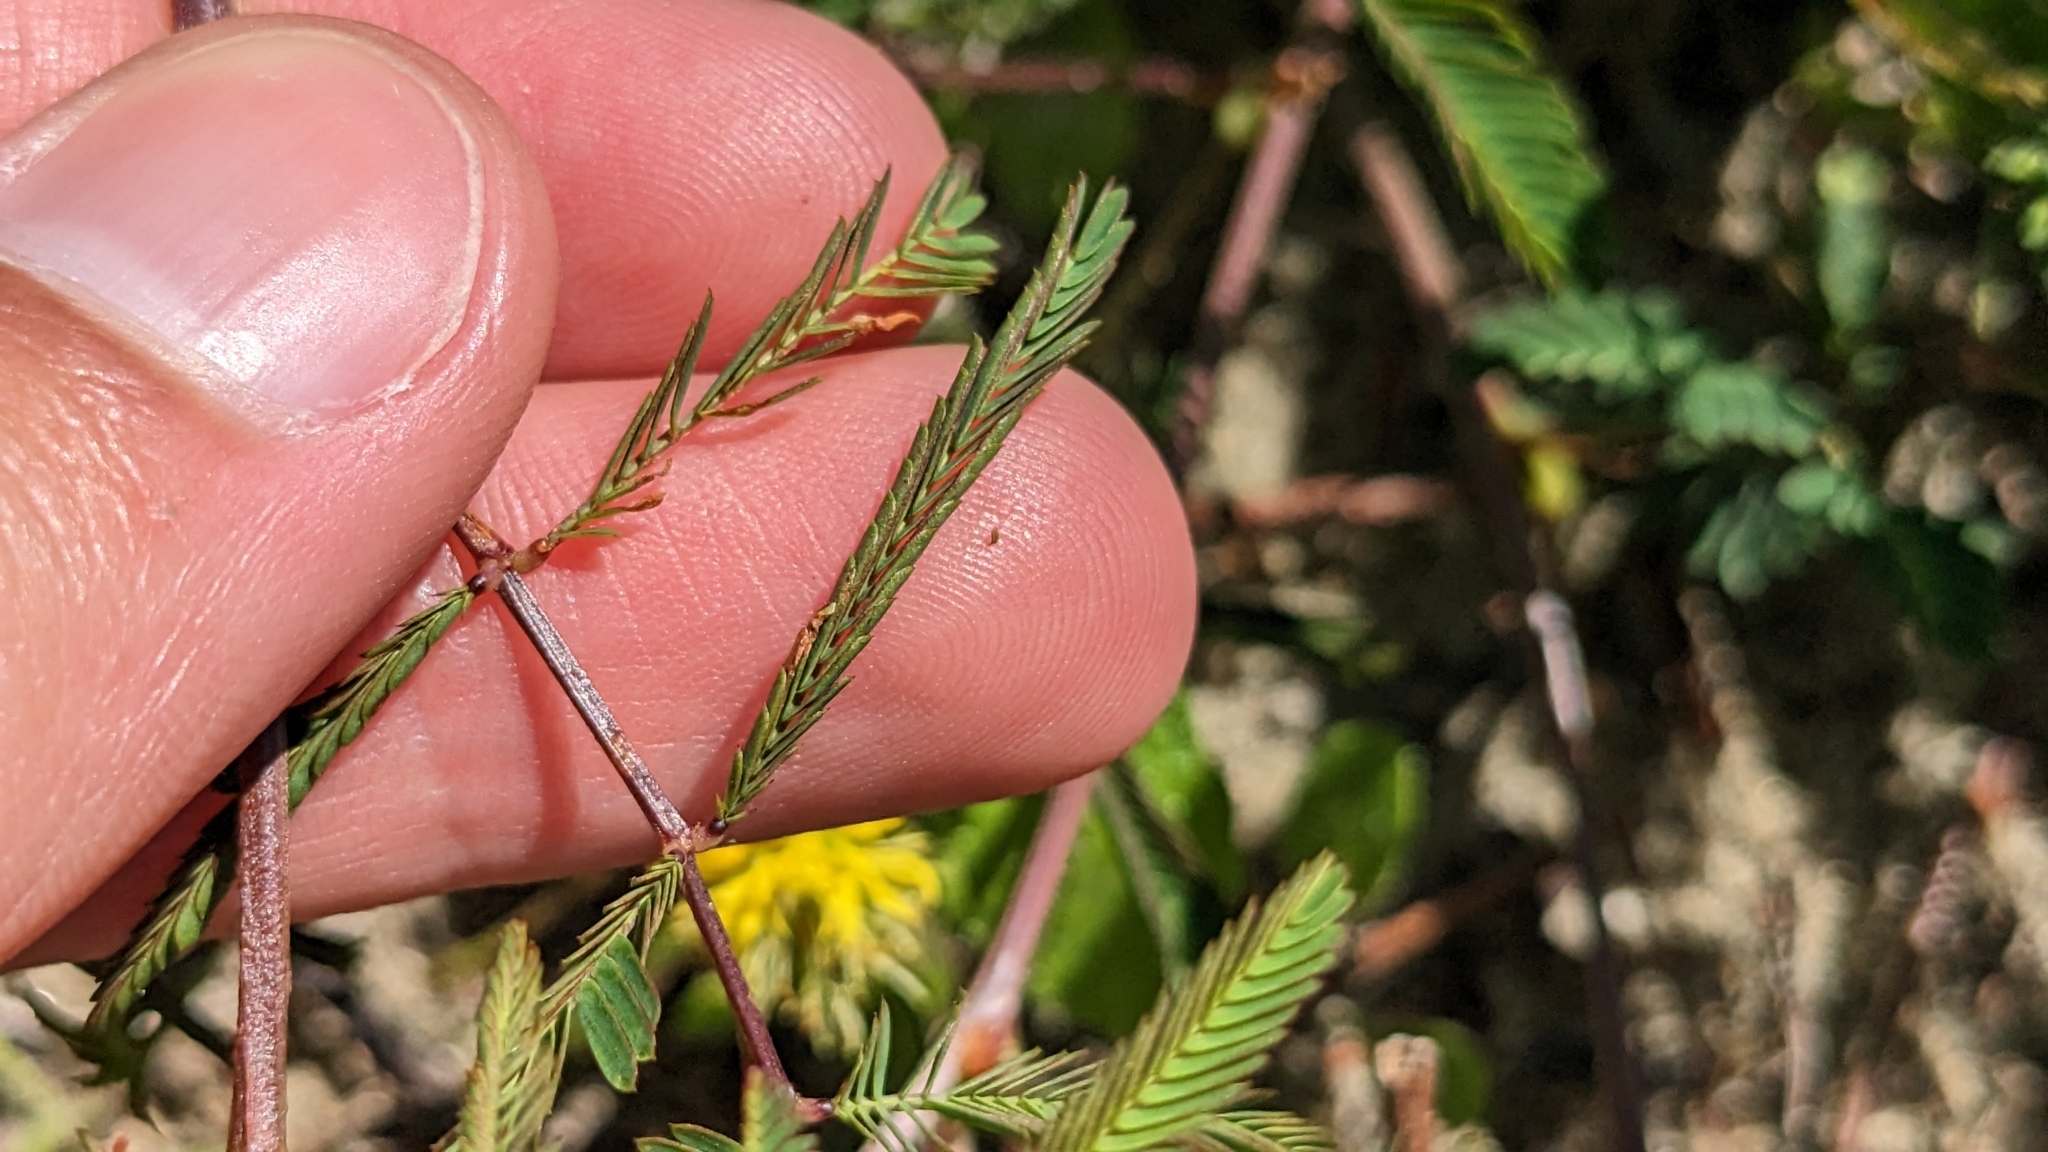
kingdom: Plantae
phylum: Tracheophyta
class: Magnoliopsida
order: Fabales
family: Fabaceae
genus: Neptunia
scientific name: Neptunia pubescens
